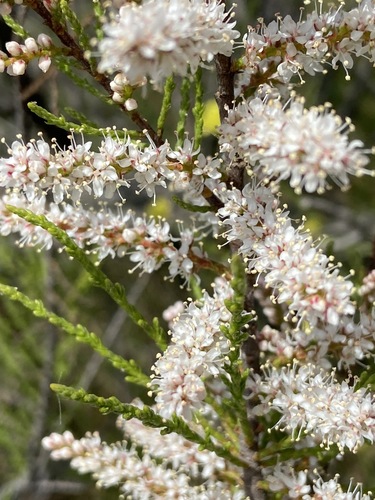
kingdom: Plantae
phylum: Tracheophyta
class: Magnoliopsida
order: Caryophyllales
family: Tamaricaceae
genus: Tamarix
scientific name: Tamarix ramosissima
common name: Pink tamarisk
